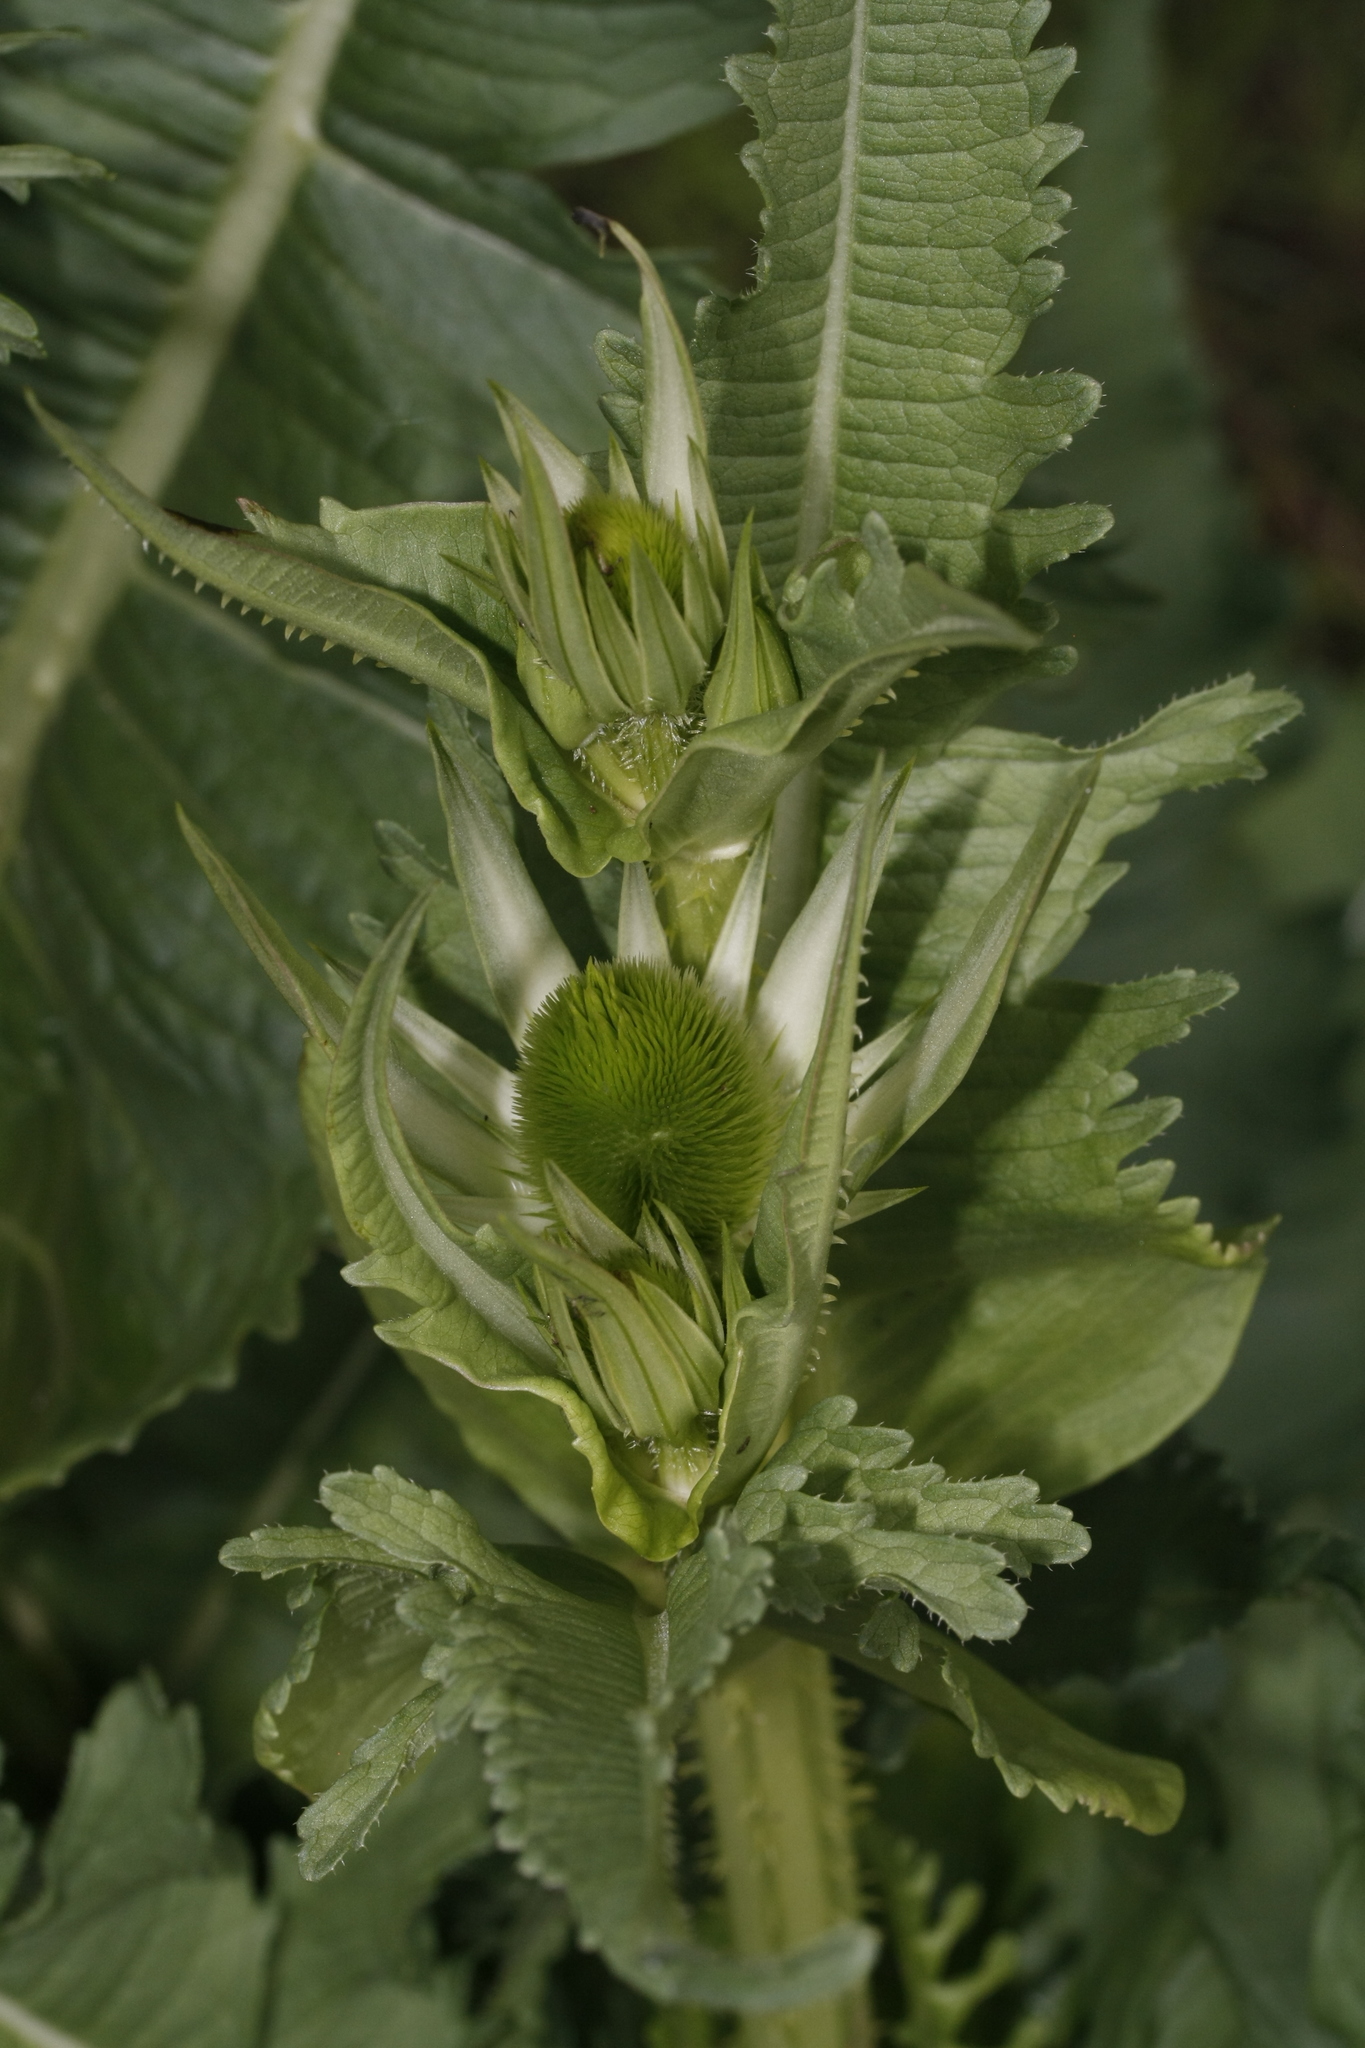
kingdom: Plantae
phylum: Tracheophyta
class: Magnoliopsida
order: Dipsacales
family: Caprifoliaceae
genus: Dipsacus
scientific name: Dipsacus laciniatus
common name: Cut-leaved teasel
